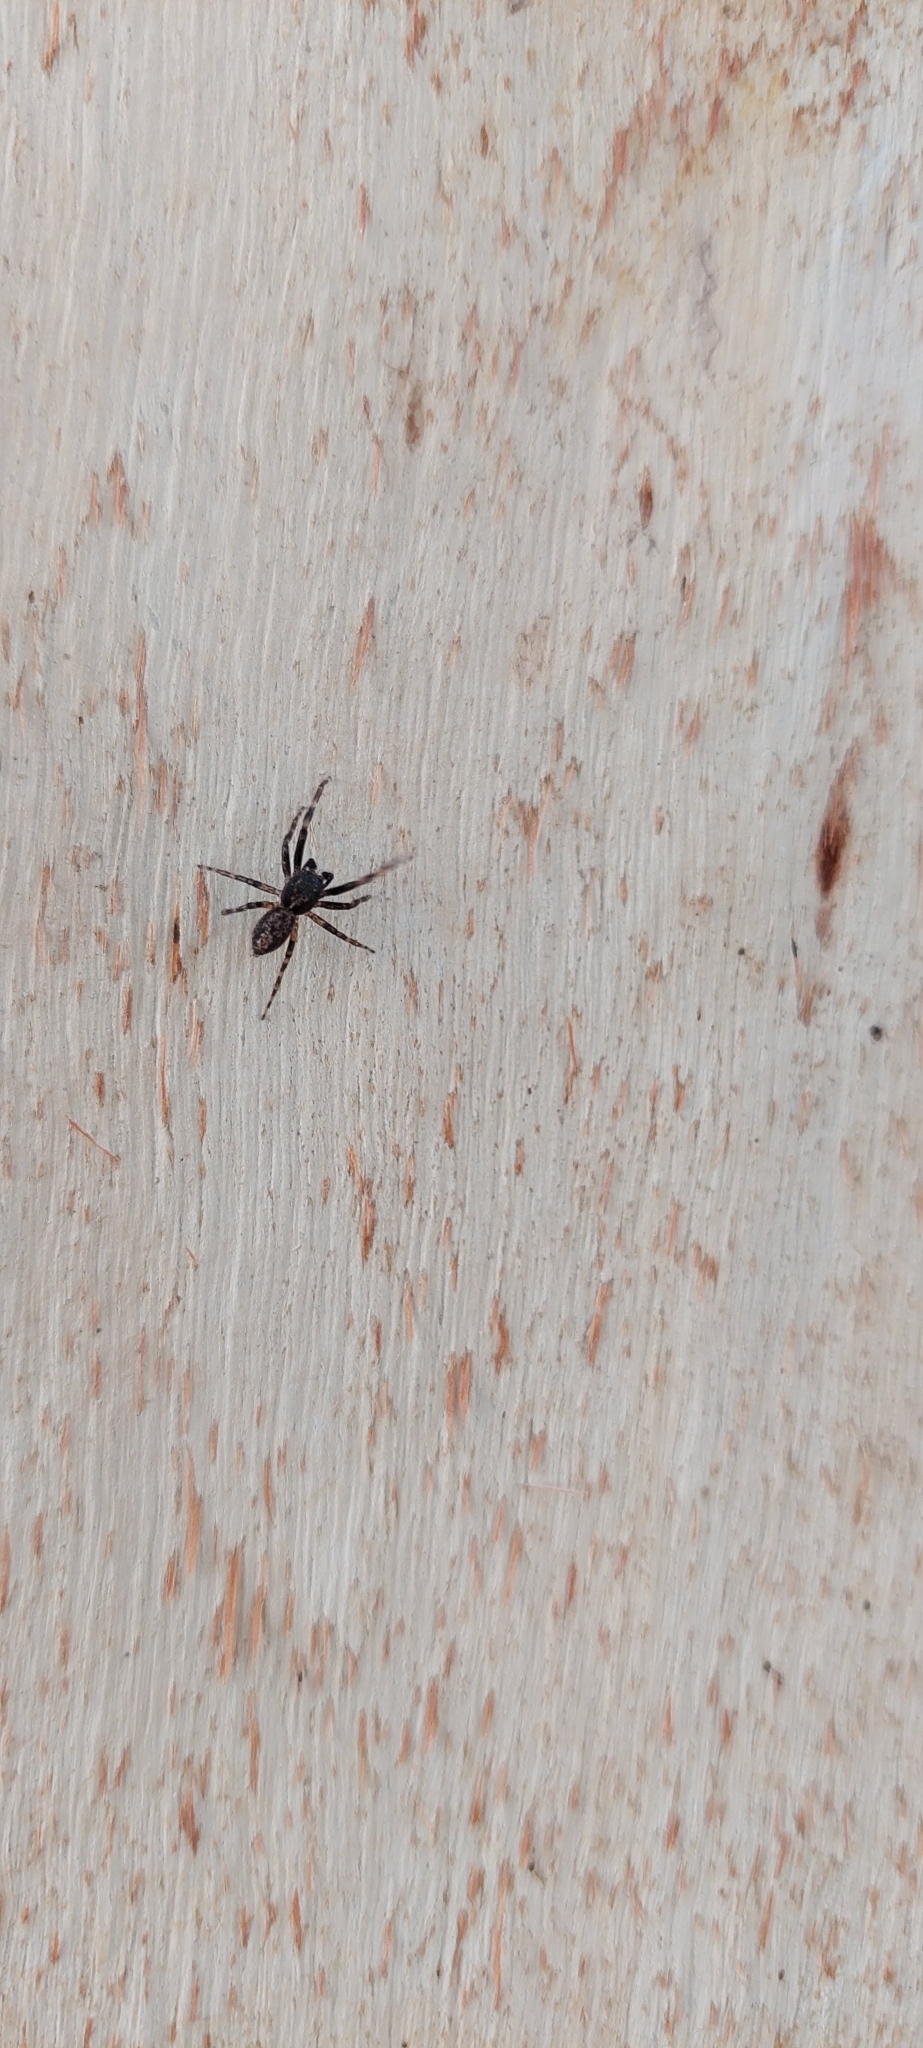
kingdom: Animalia
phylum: Arthropoda
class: Arachnida
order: Araneae
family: Salticidae
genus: Titanattus
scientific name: Titanattus andinus
